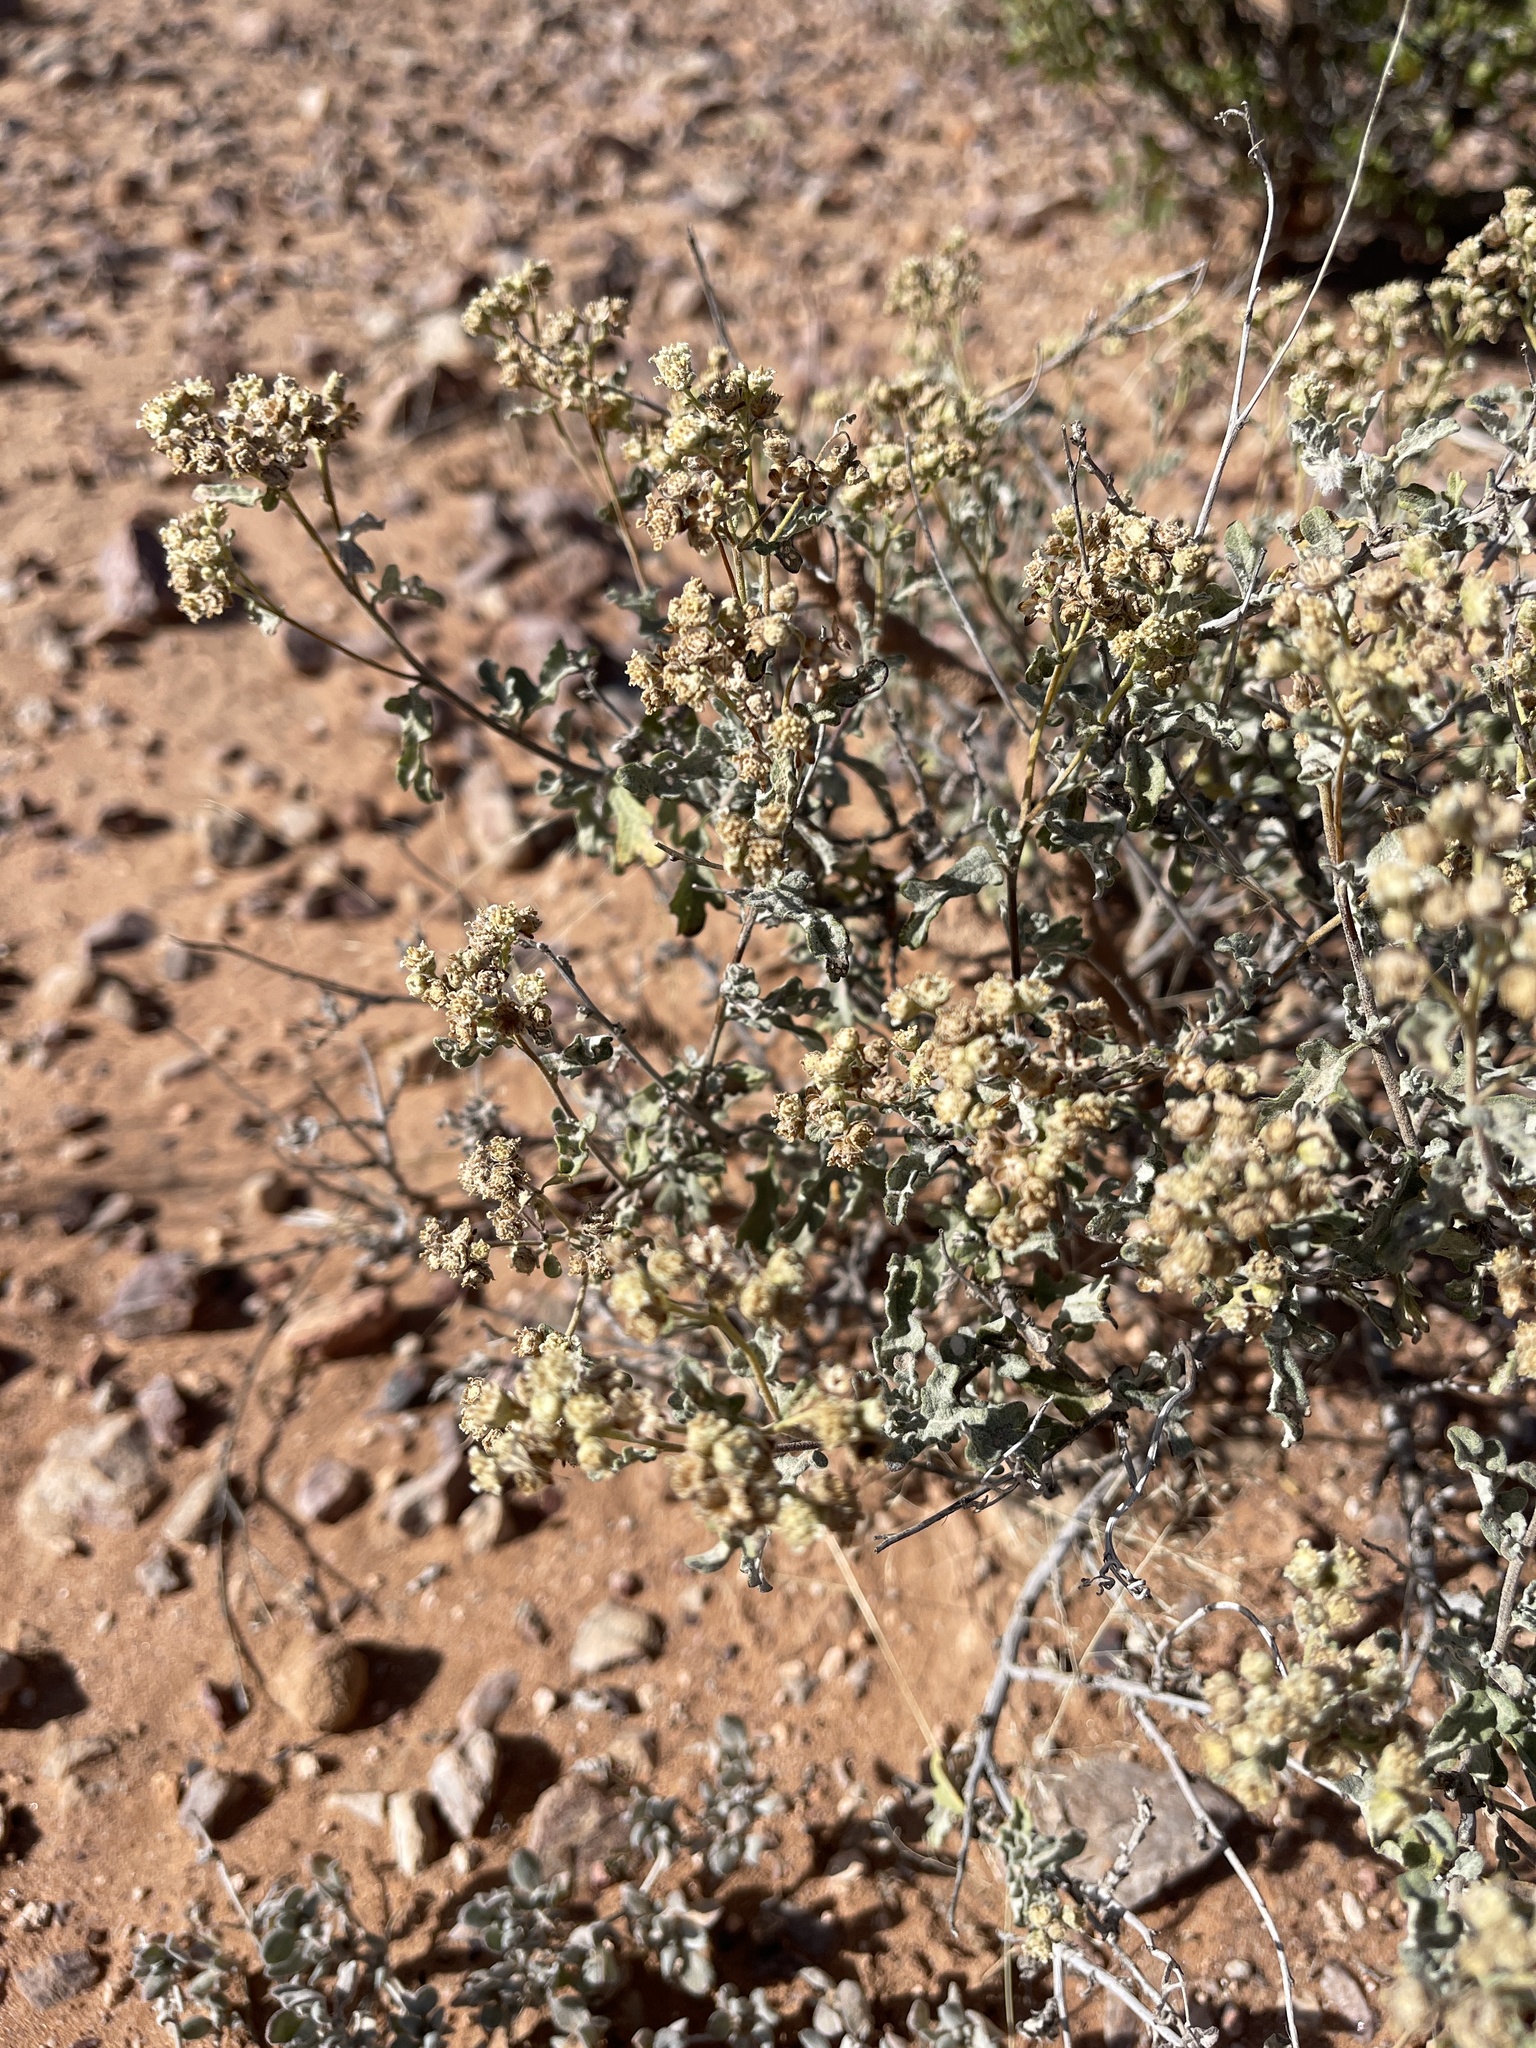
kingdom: Plantae
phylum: Tracheophyta
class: Magnoliopsida
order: Asterales
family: Asteraceae
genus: Parthenium
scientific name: Parthenium incanum
